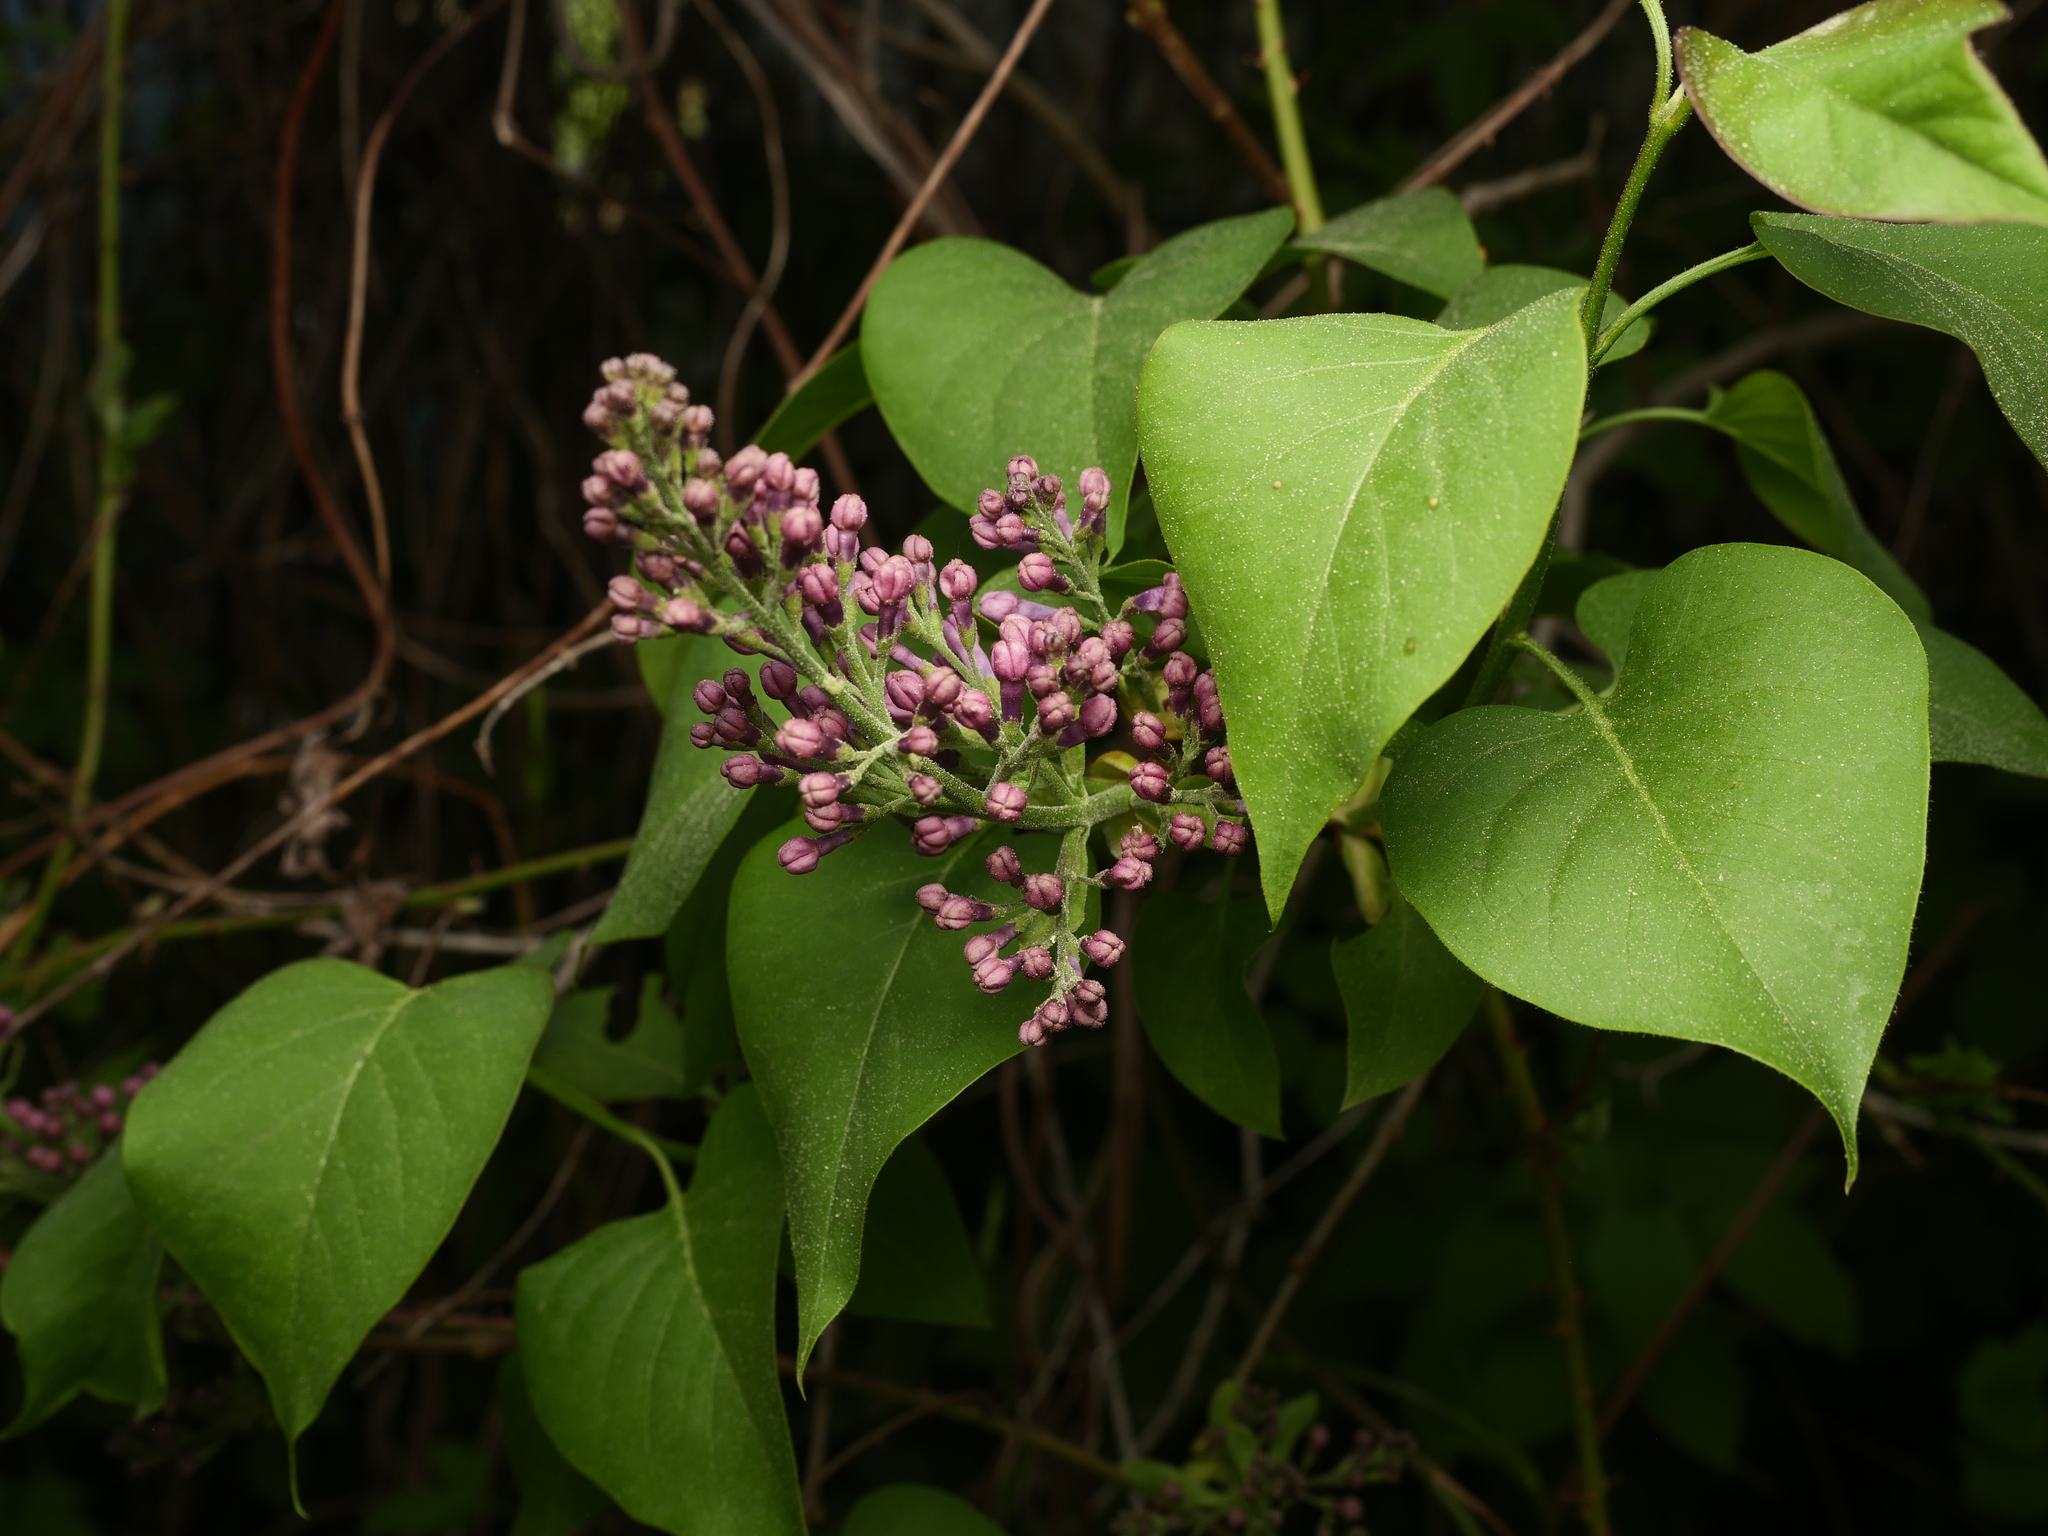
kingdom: Plantae
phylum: Tracheophyta
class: Magnoliopsida
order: Lamiales
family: Oleaceae
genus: Syringa
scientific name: Syringa vulgaris
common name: Common lilac
